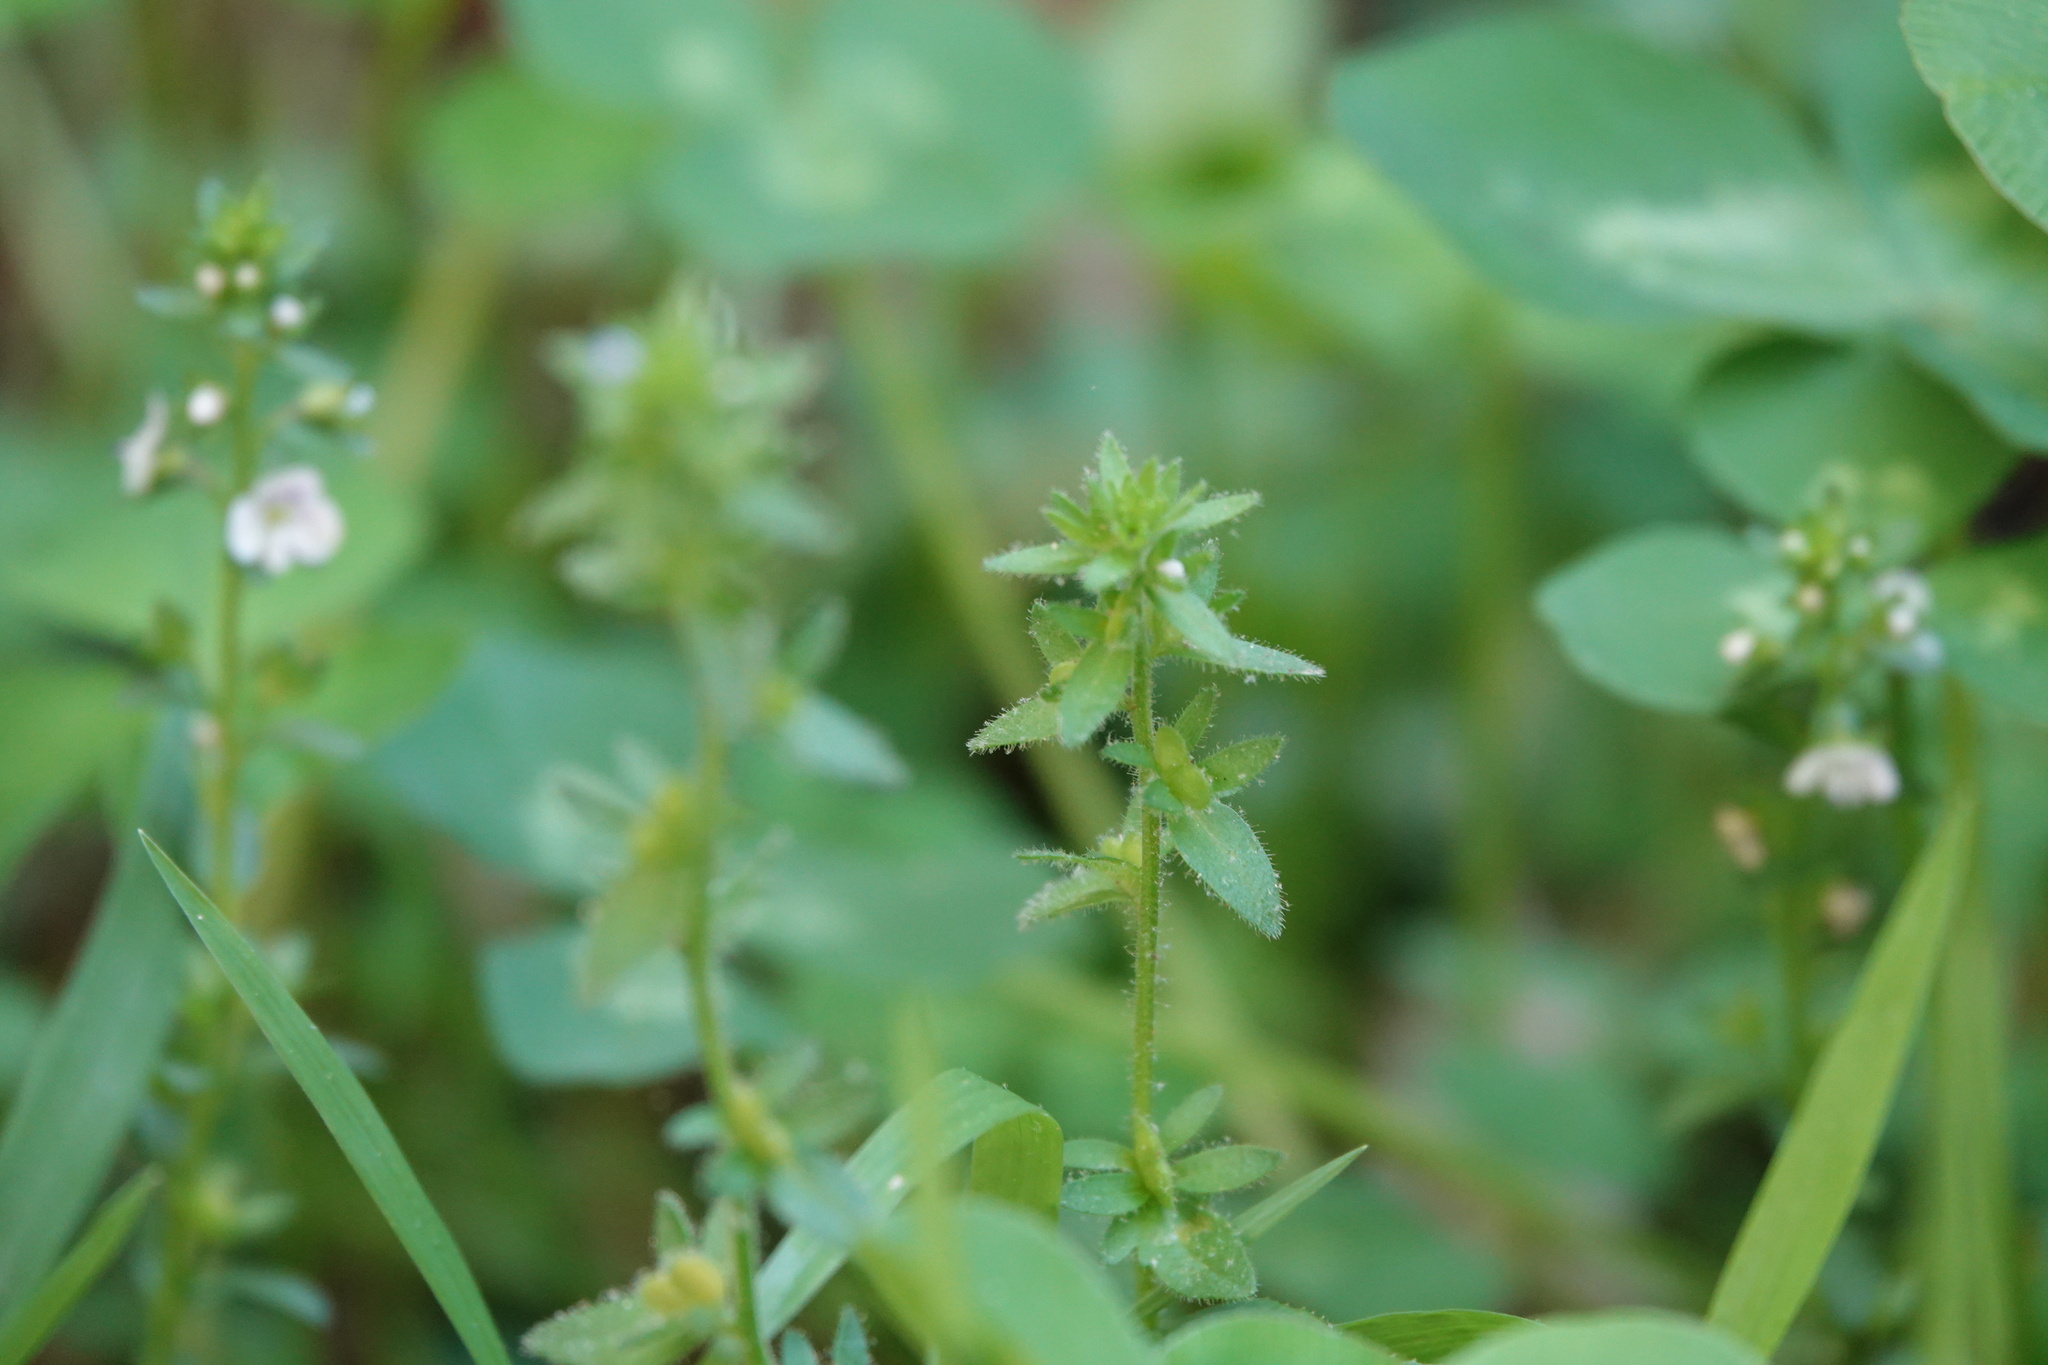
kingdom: Plantae
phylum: Tracheophyta
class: Magnoliopsida
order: Lamiales
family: Plantaginaceae
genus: Veronica
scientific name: Veronica serpyllifolia
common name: Thyme-leaved speedwell
